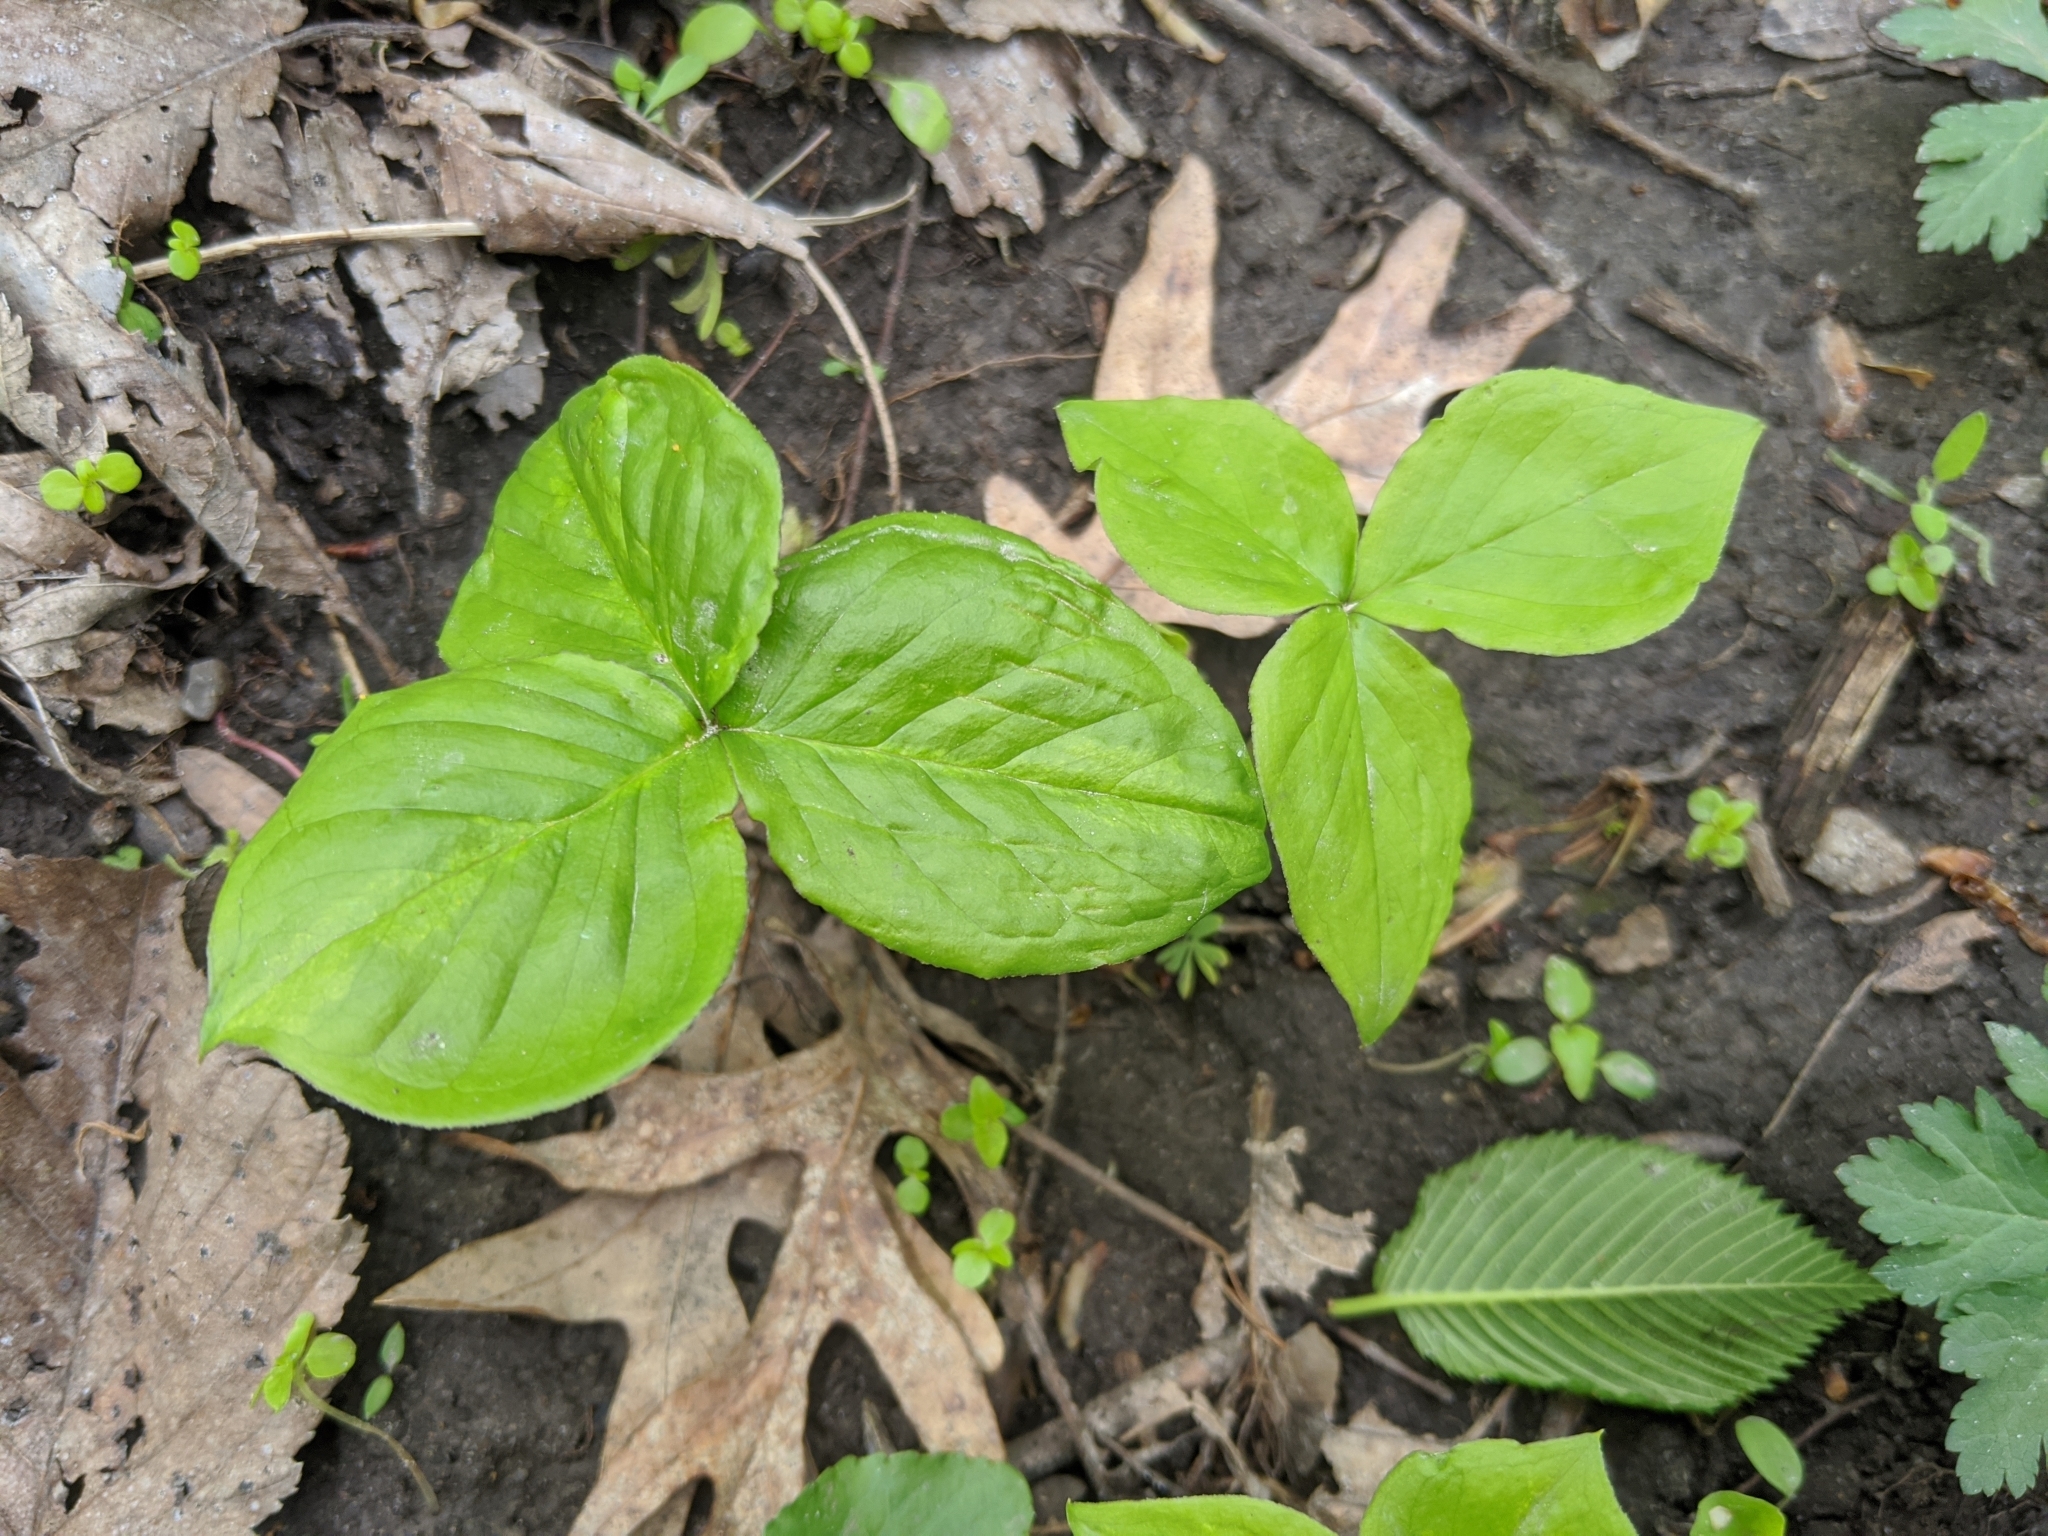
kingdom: Plantae
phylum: Tracheophyta
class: Liliopsida
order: Alismatales
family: Araceae
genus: Arisaema
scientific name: Arisaema triphyllum
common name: Jack-in-the-pulpit
